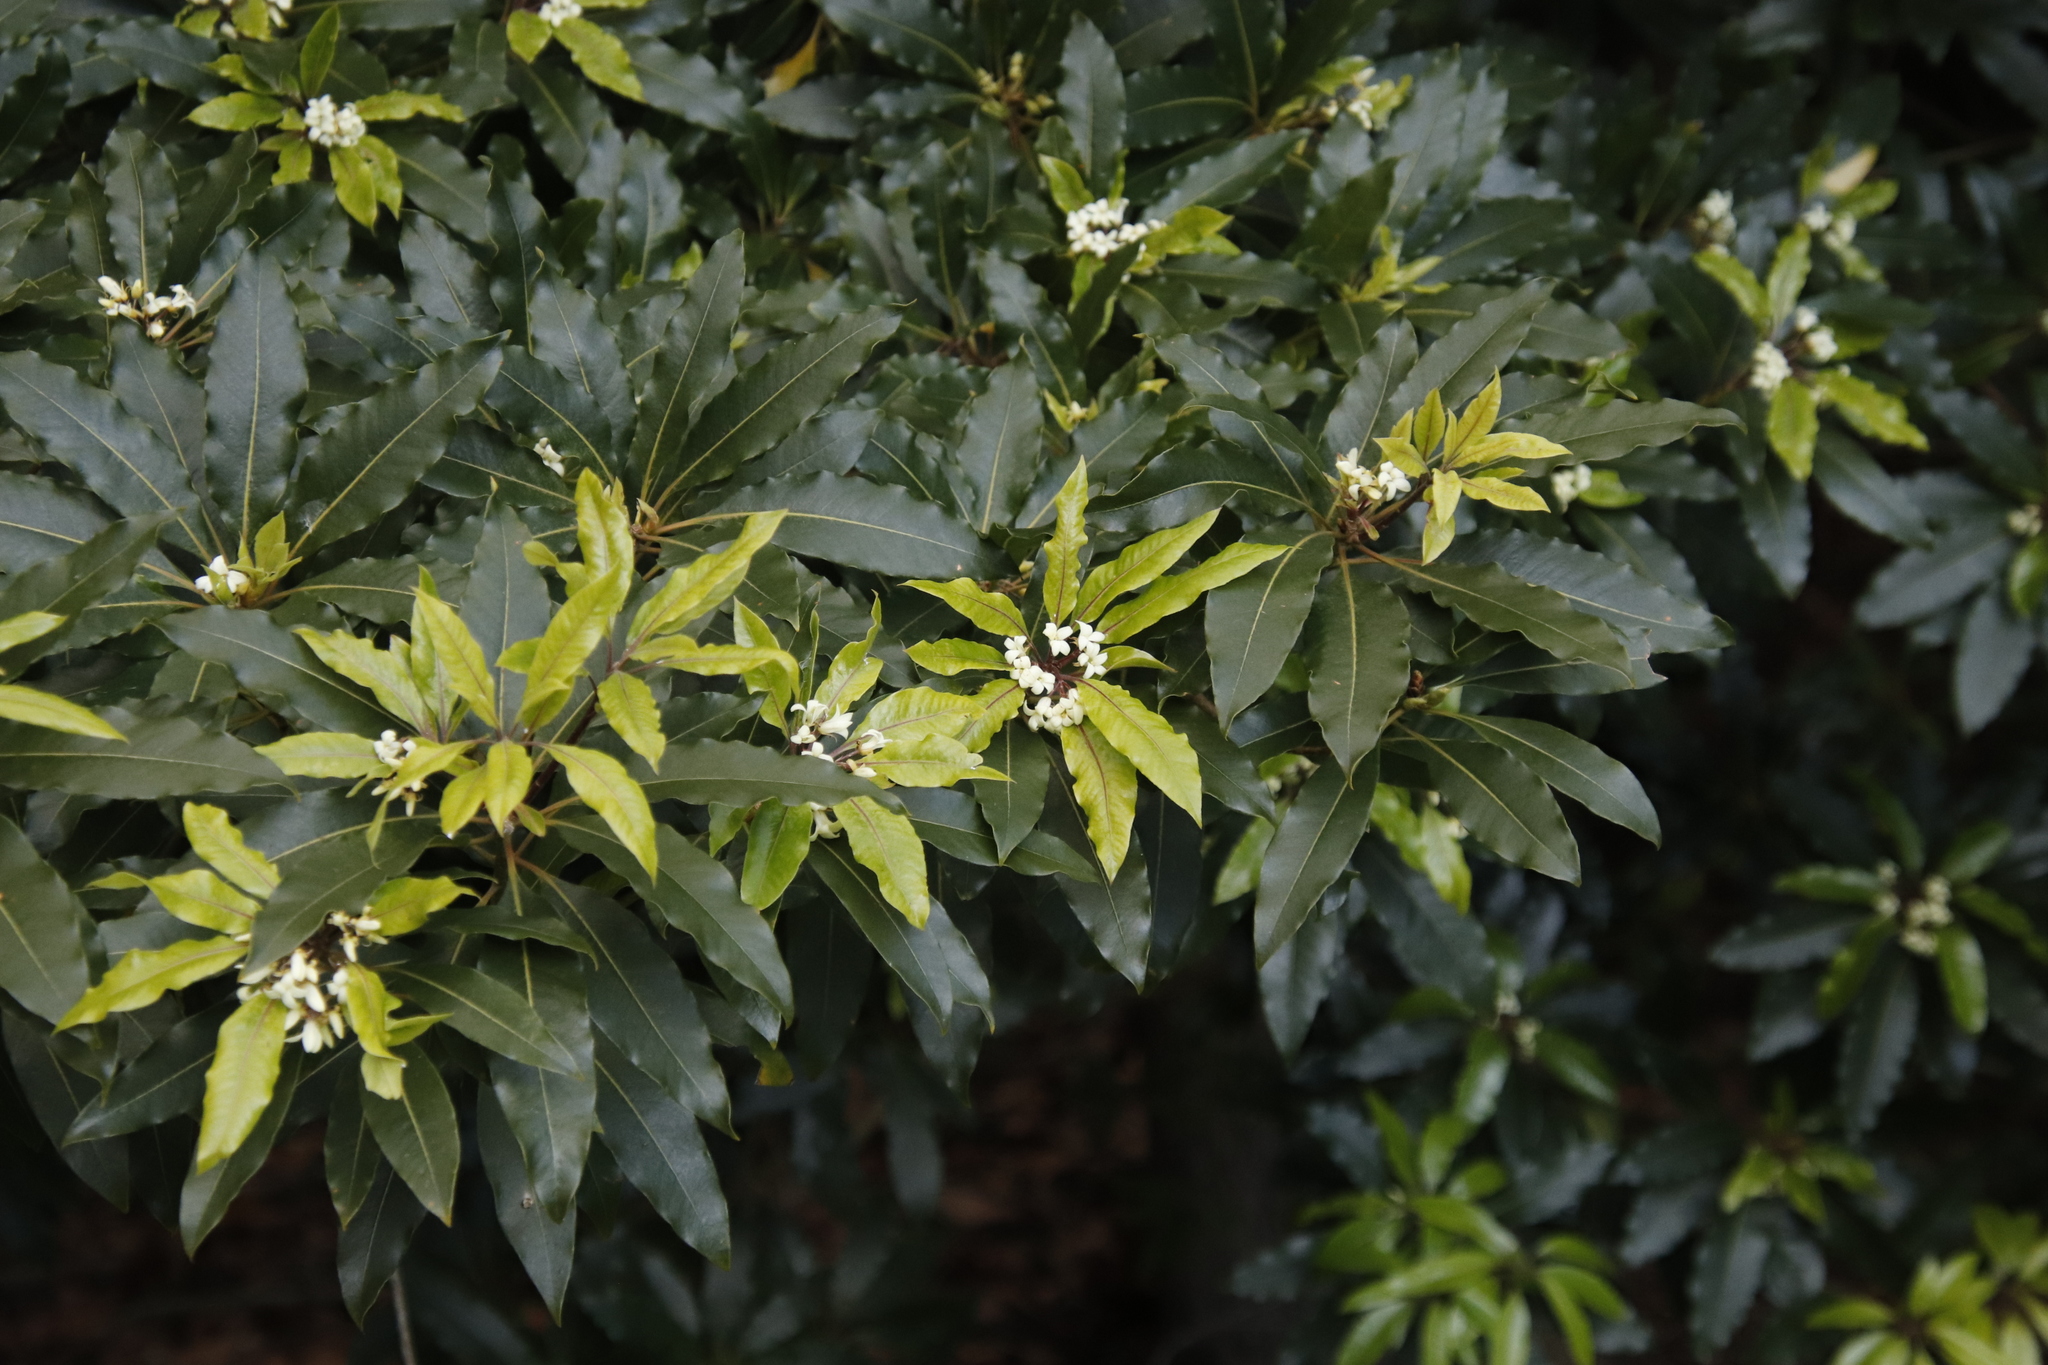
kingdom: Plantae
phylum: Tracheophyta
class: Magnoliopsida
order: Apiales
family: Pittosporaceae
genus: Pittosporum
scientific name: Pittosporum undulatum
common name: Australian cheesewood
